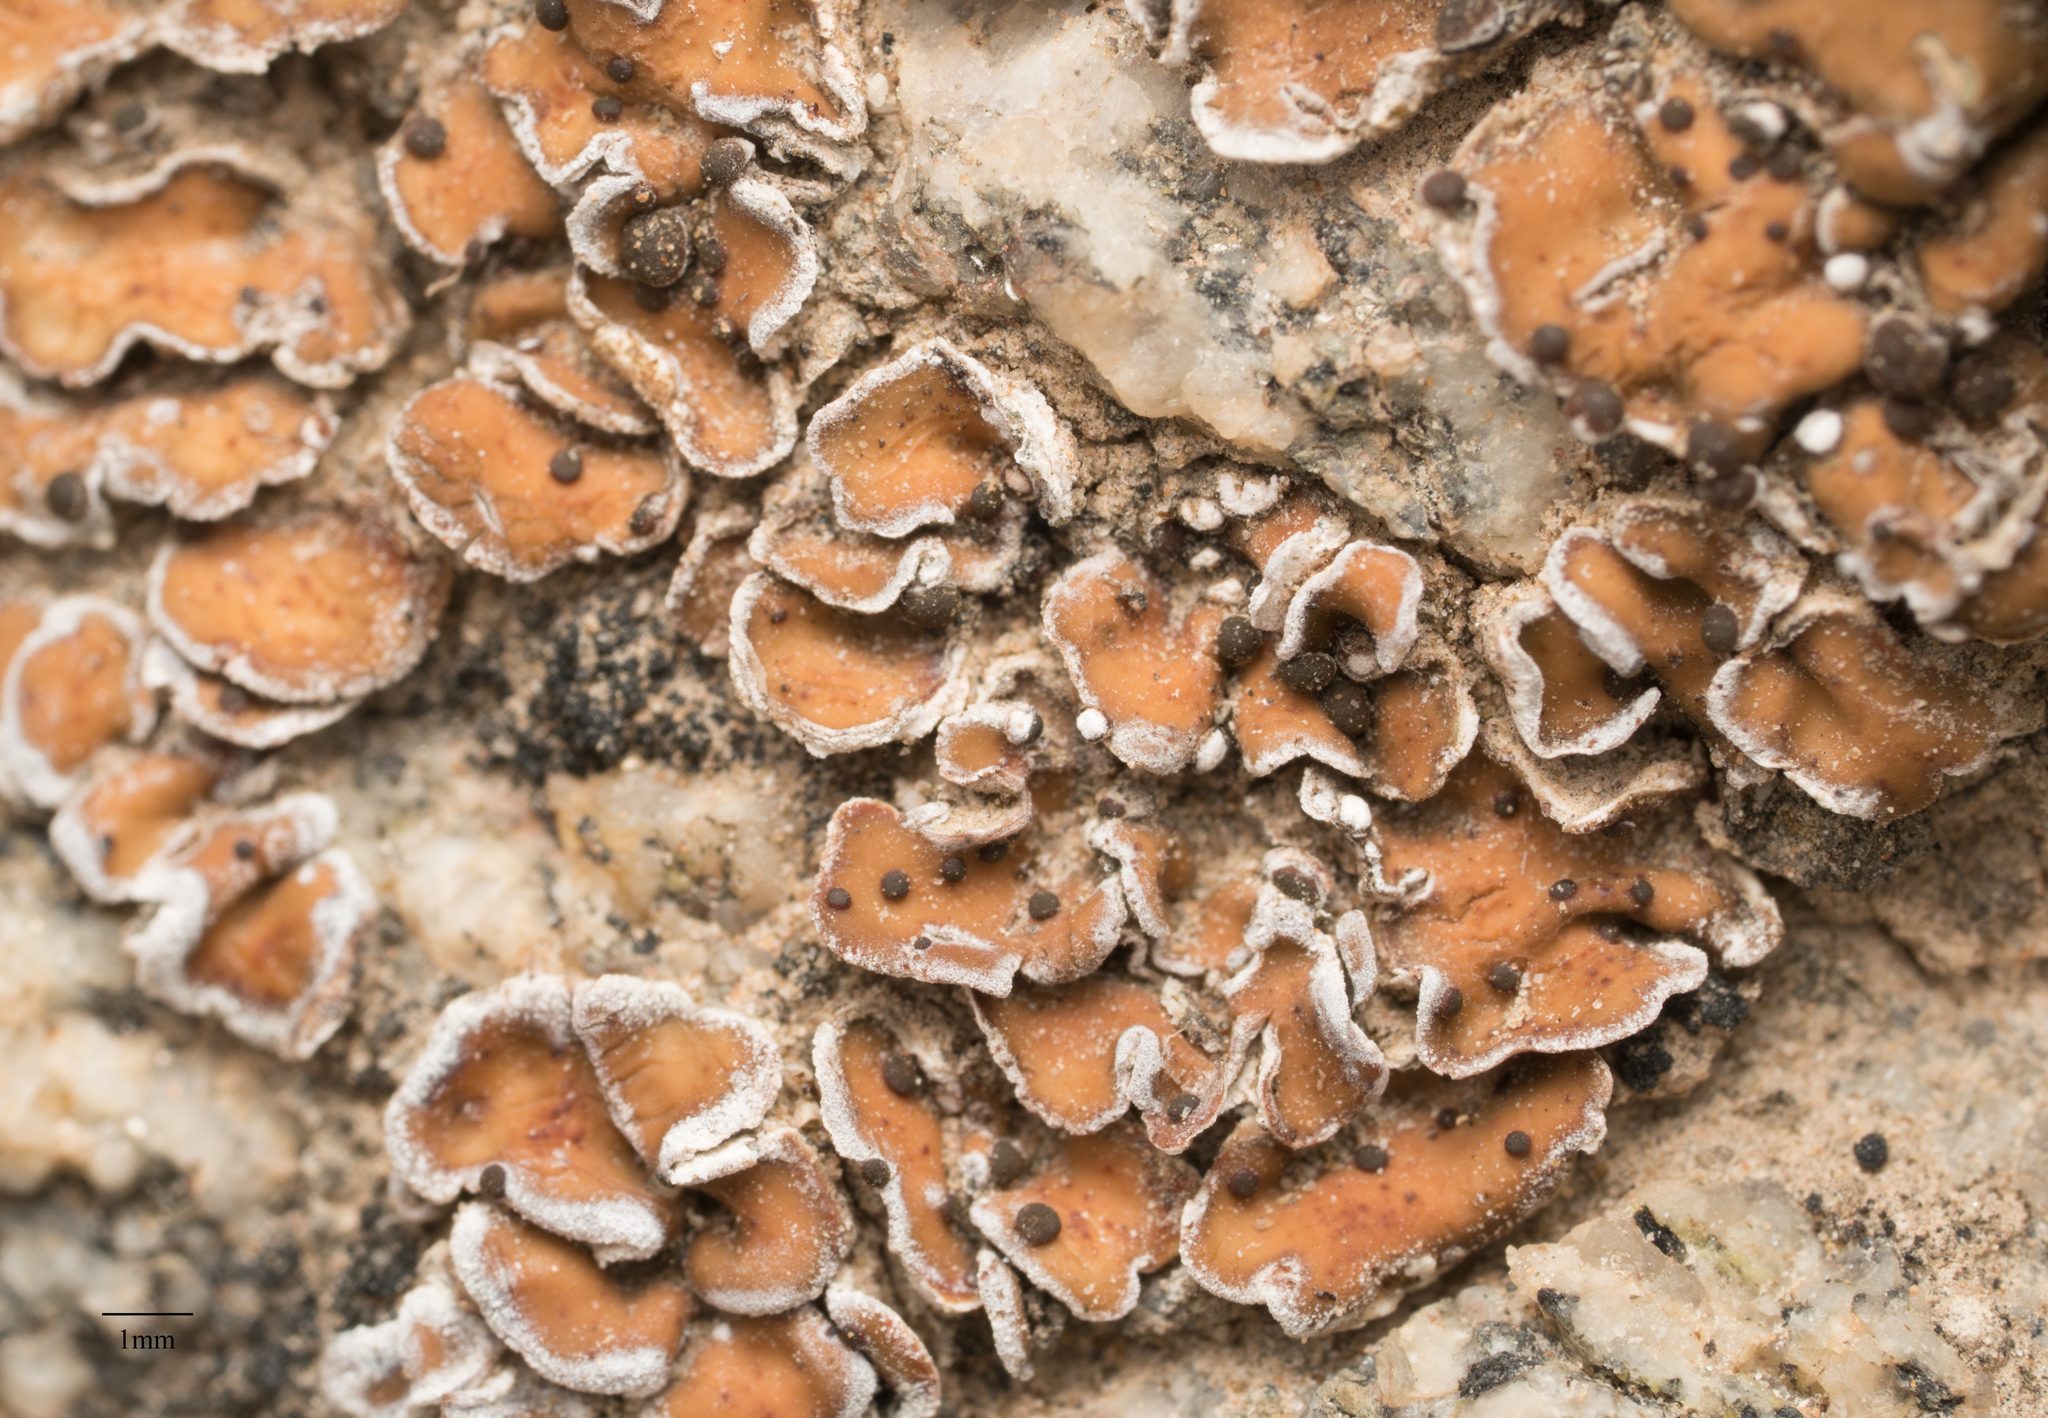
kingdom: Fungi
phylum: Ascomycota
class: Lecanoromycetes
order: Lecanorales
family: Psoraceae
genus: Psora
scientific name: Psora decipiens
